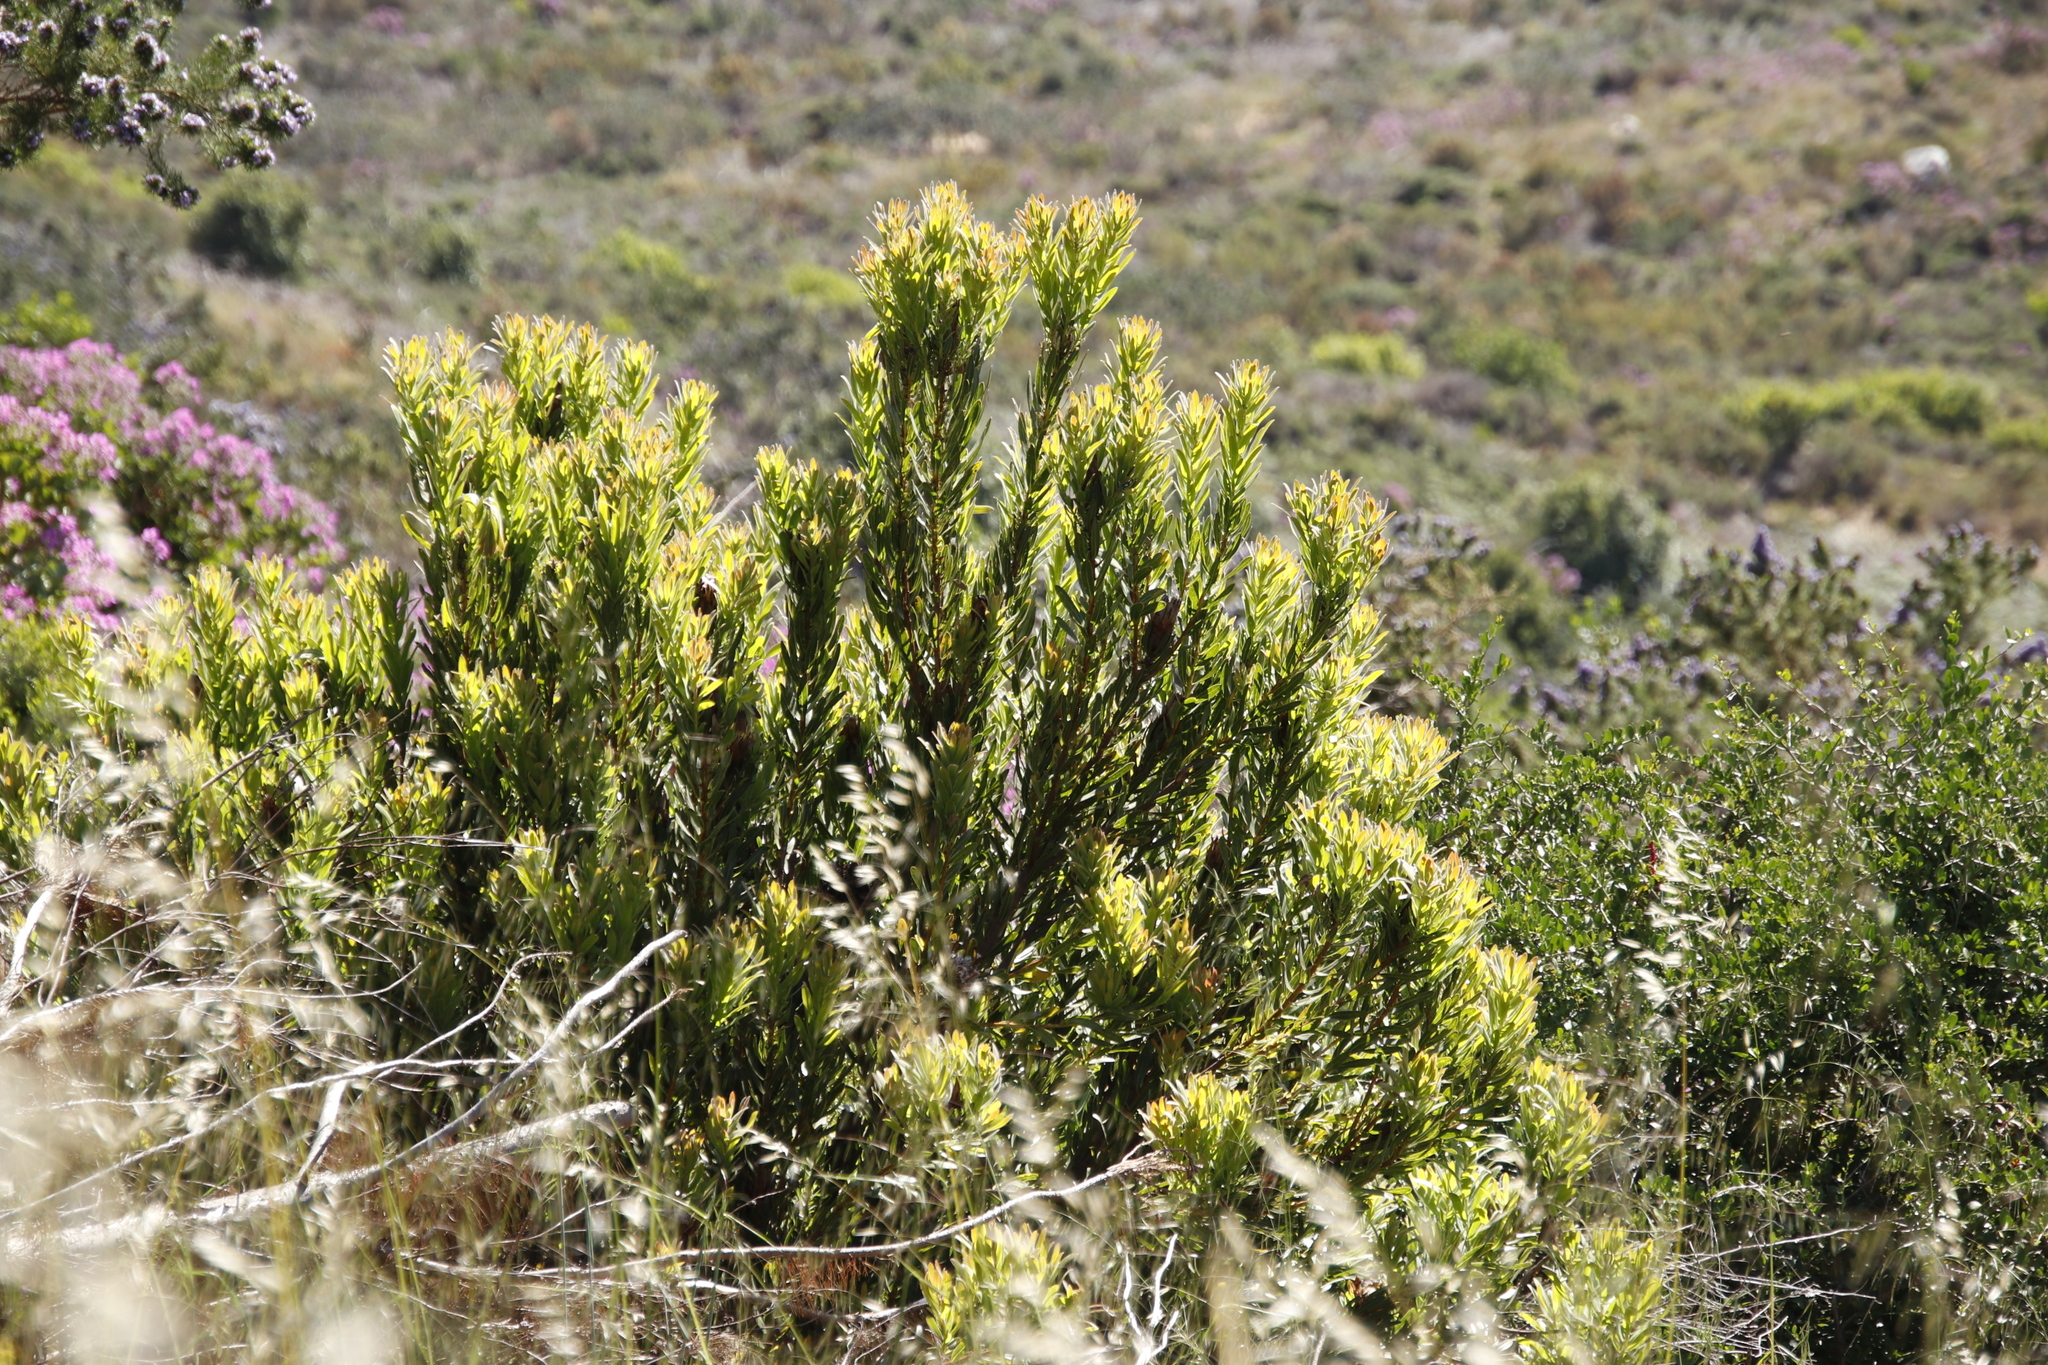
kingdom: Plantae
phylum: Tracheophyta
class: Magnoliopsida
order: Proteales
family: Proteaceae
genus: Protea
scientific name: Protea lepidocarpodendron
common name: Black-bearded protea
